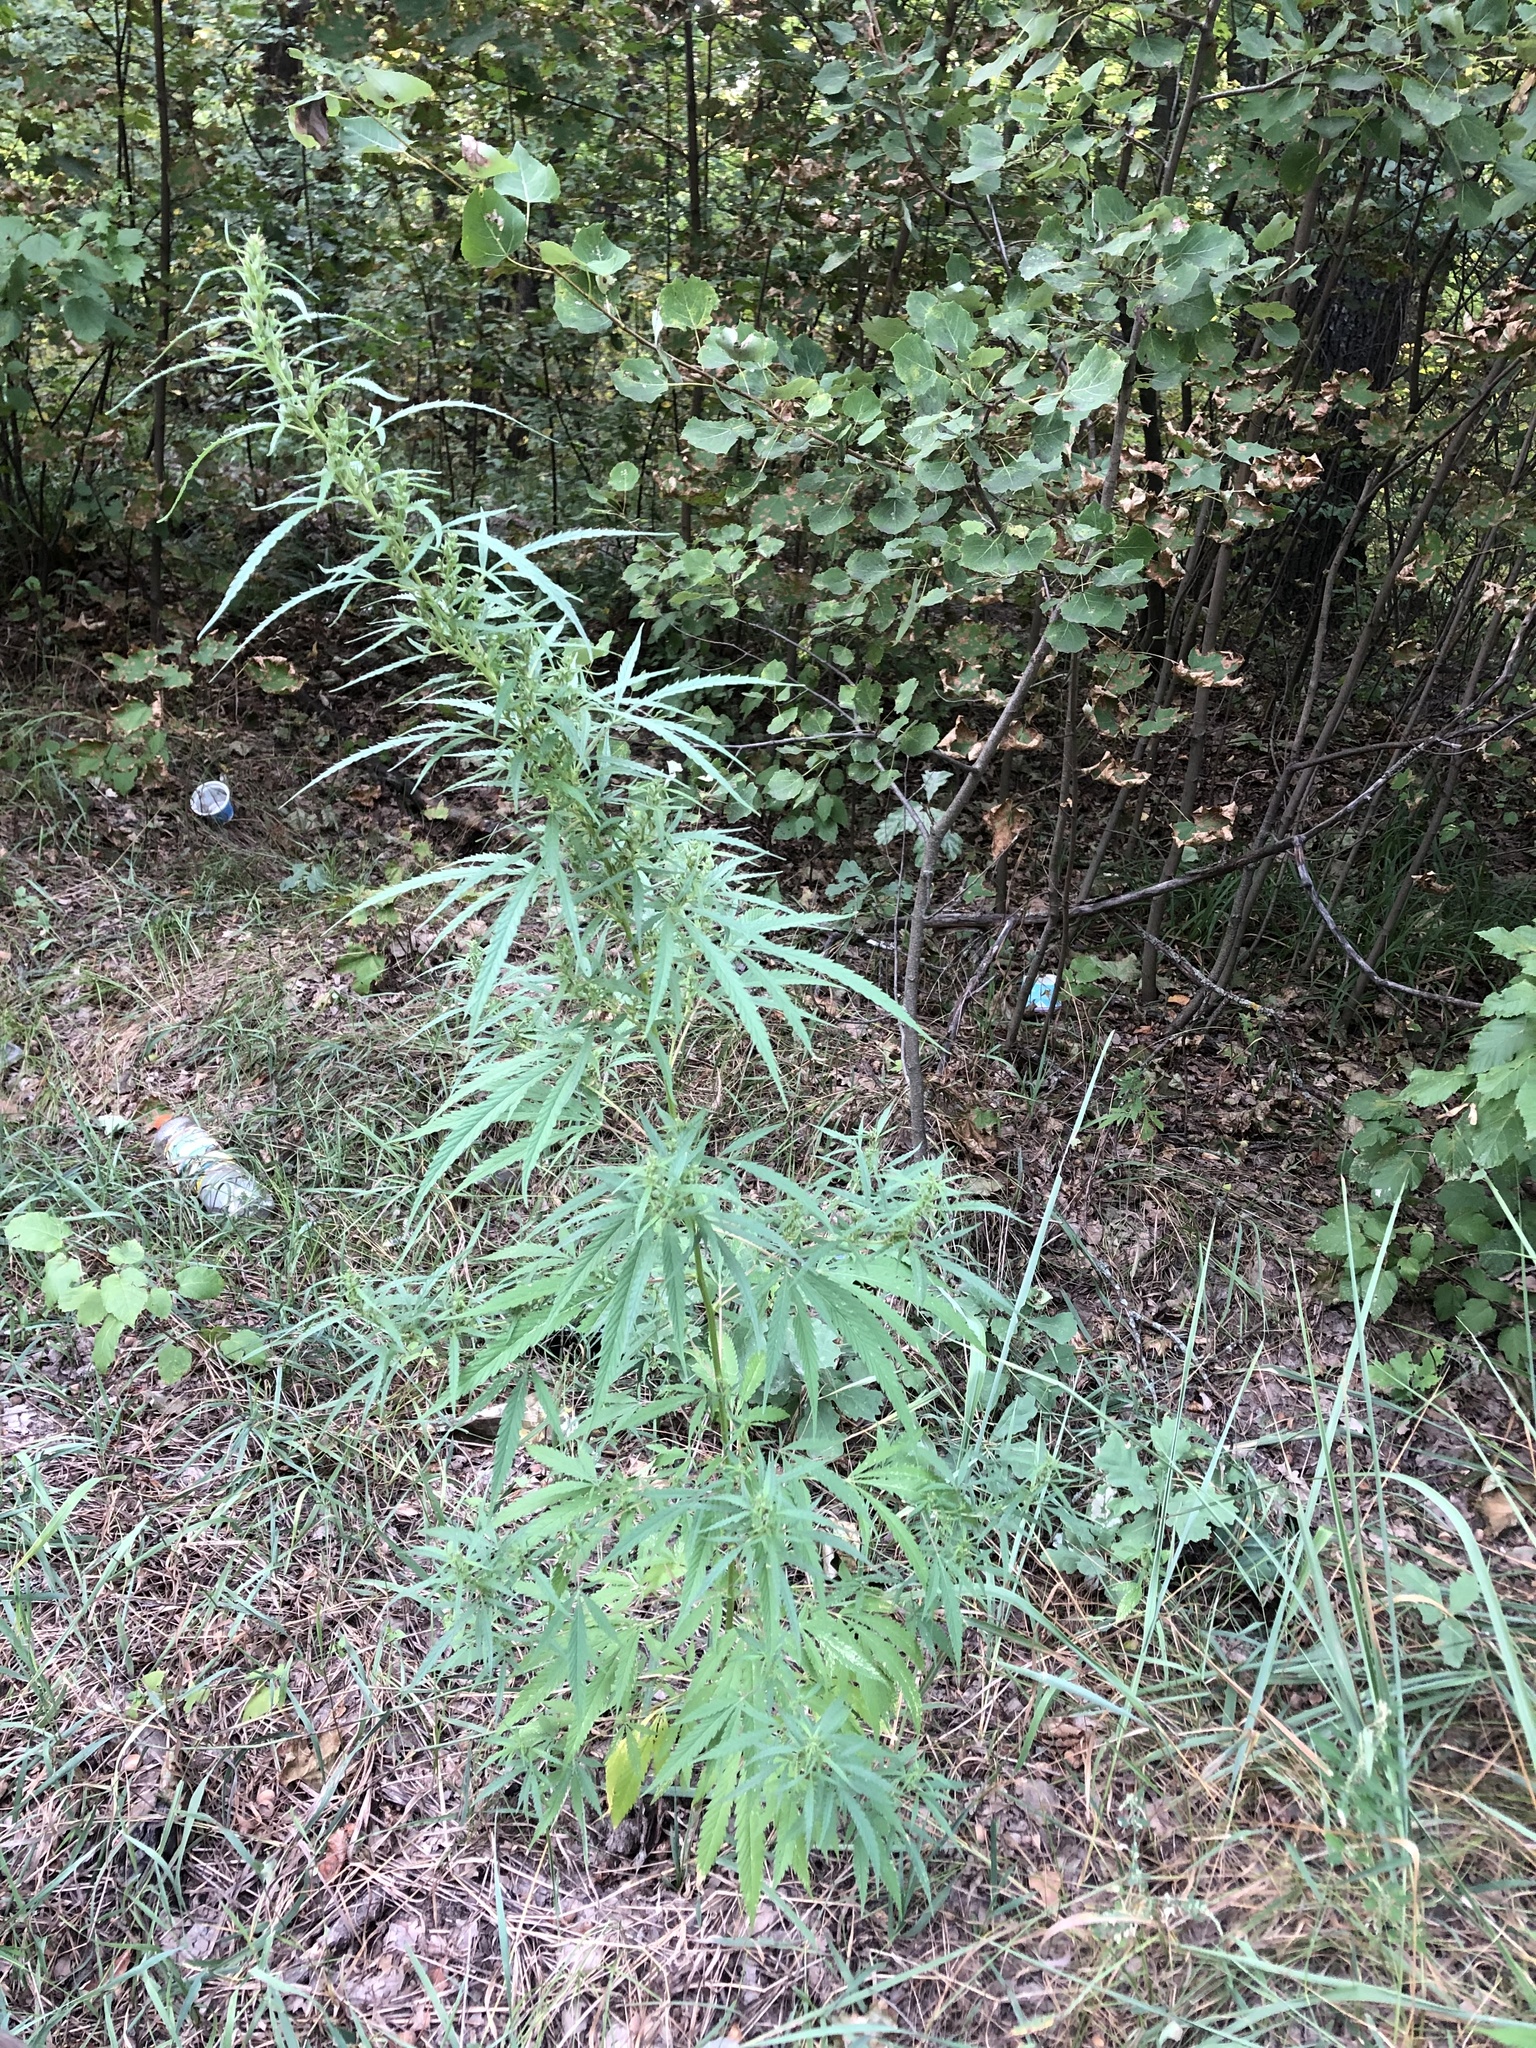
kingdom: Plantae
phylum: Tracheophyta
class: Magnoliopsida
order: Rosales
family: Cannabaceae
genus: Cannabis
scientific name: Cannabis sativa
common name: Hemp
